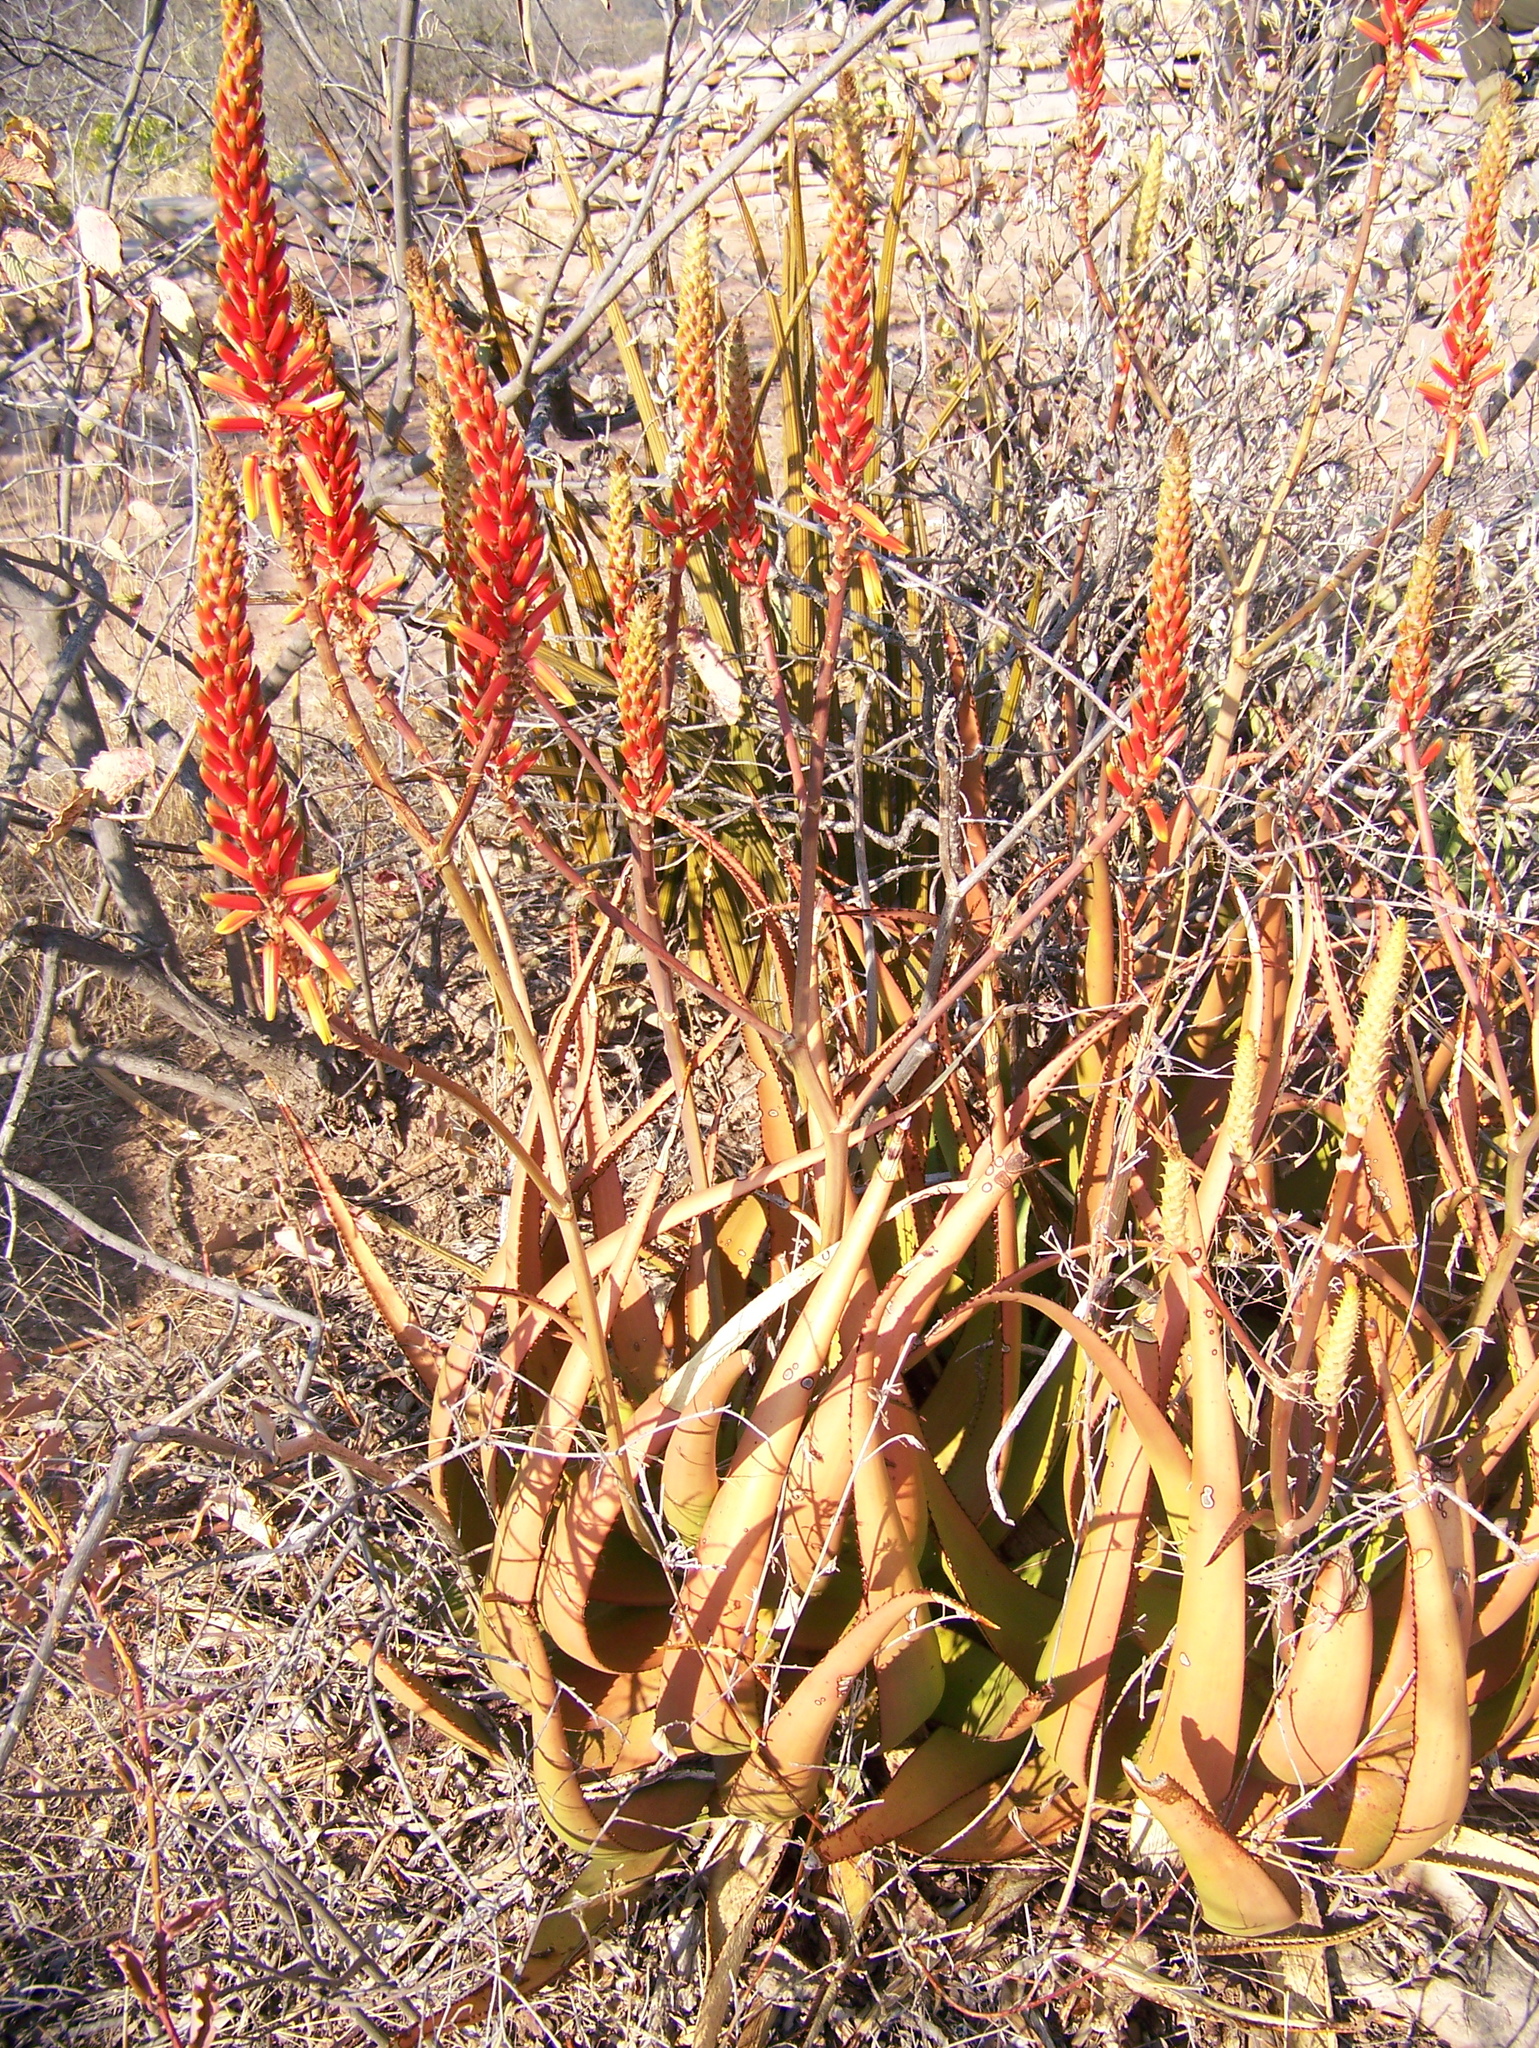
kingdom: Plantae
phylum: Tracheophyta
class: Liliopsida
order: Asparagales
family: Asphodelaceae
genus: Aloe
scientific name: Aloe lutescens
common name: Malapati aloe
